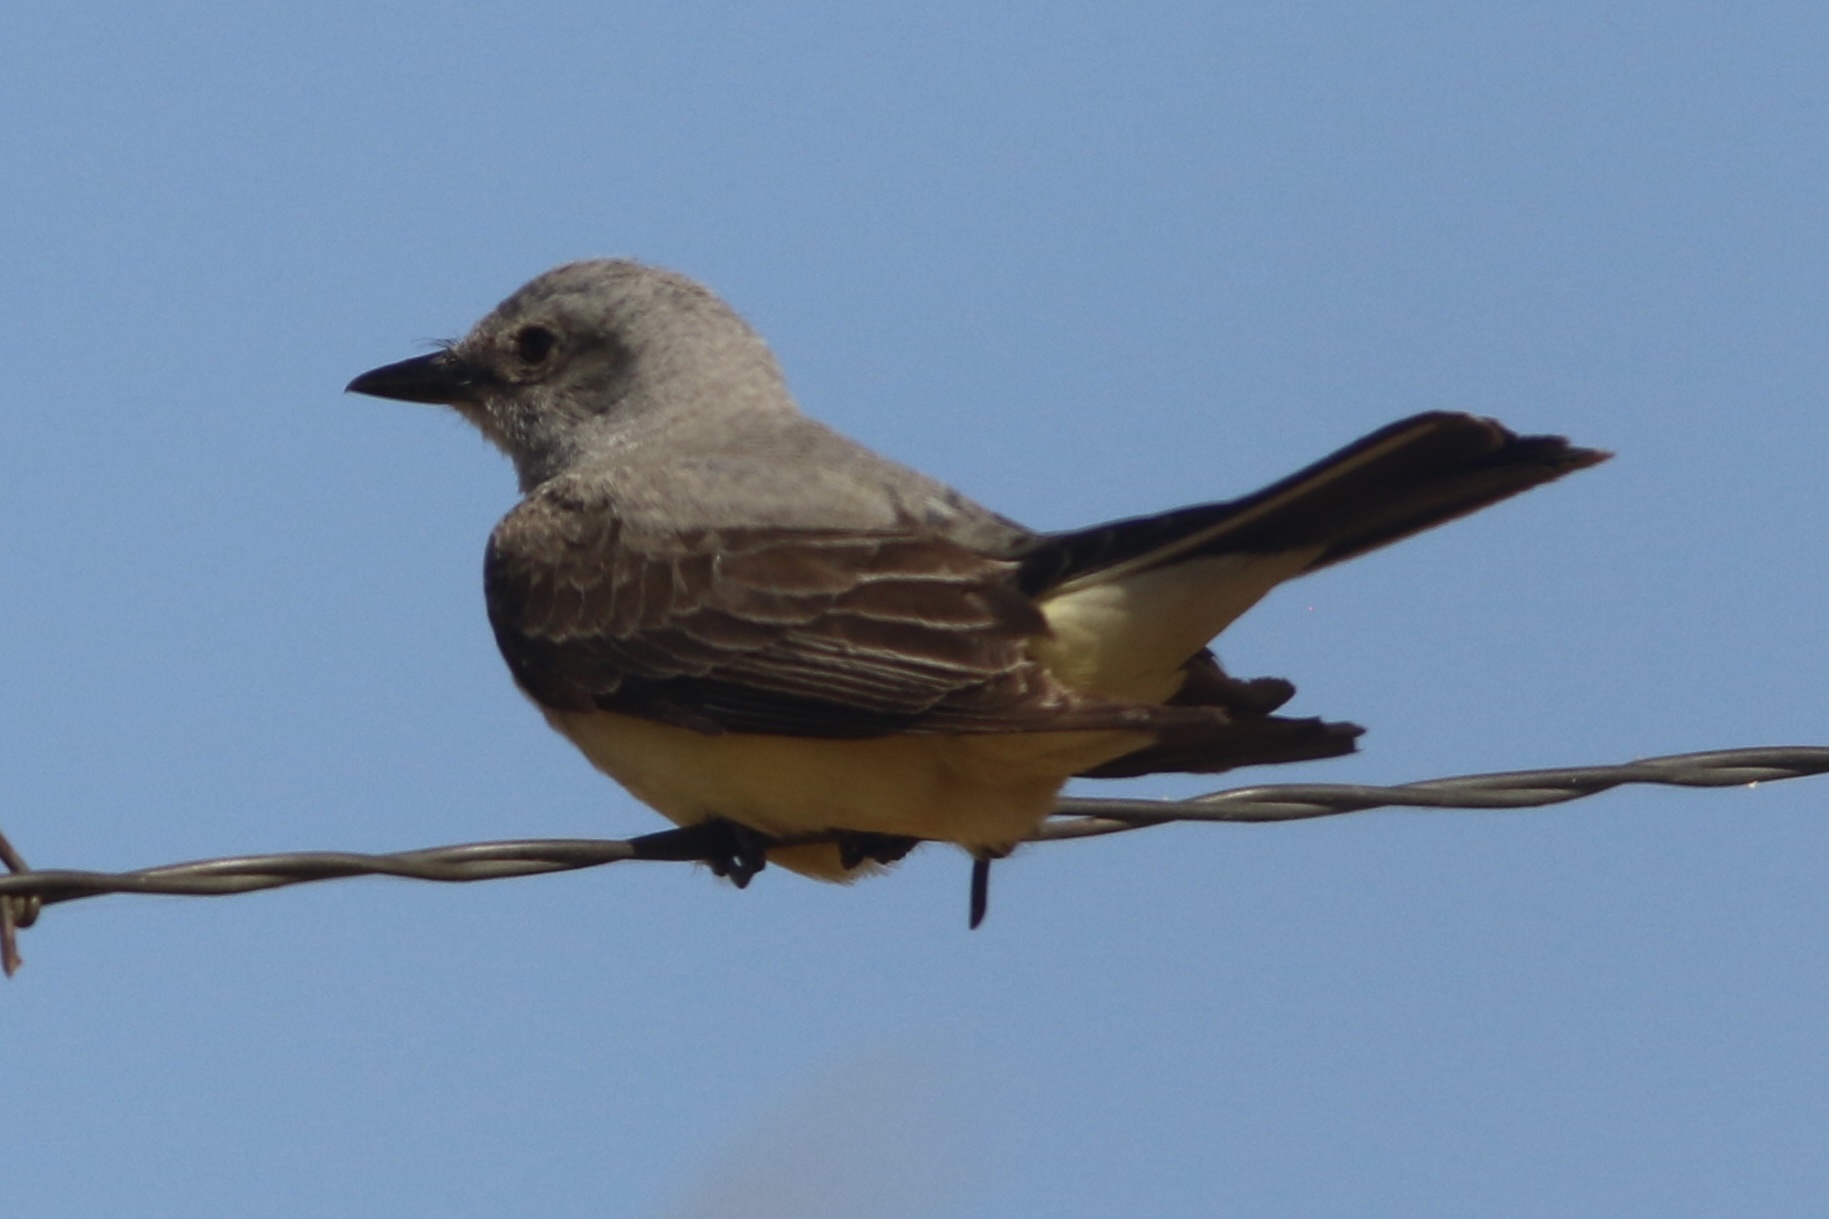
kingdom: Animalia
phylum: Chordata
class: Aves
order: Passeriformes
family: Tyrannidae
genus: Tyrannus
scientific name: Tyrannus verticalis
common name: Western kingbird
